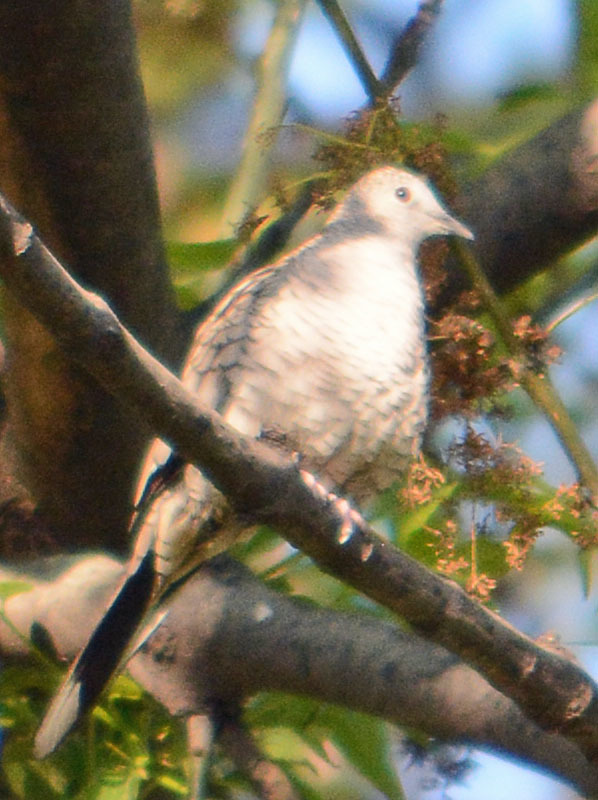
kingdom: Animalia
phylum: Chordata
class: Aves
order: Columbiformes
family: Columbidae
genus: Columbina
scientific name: Columbina inca
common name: Inca dove
